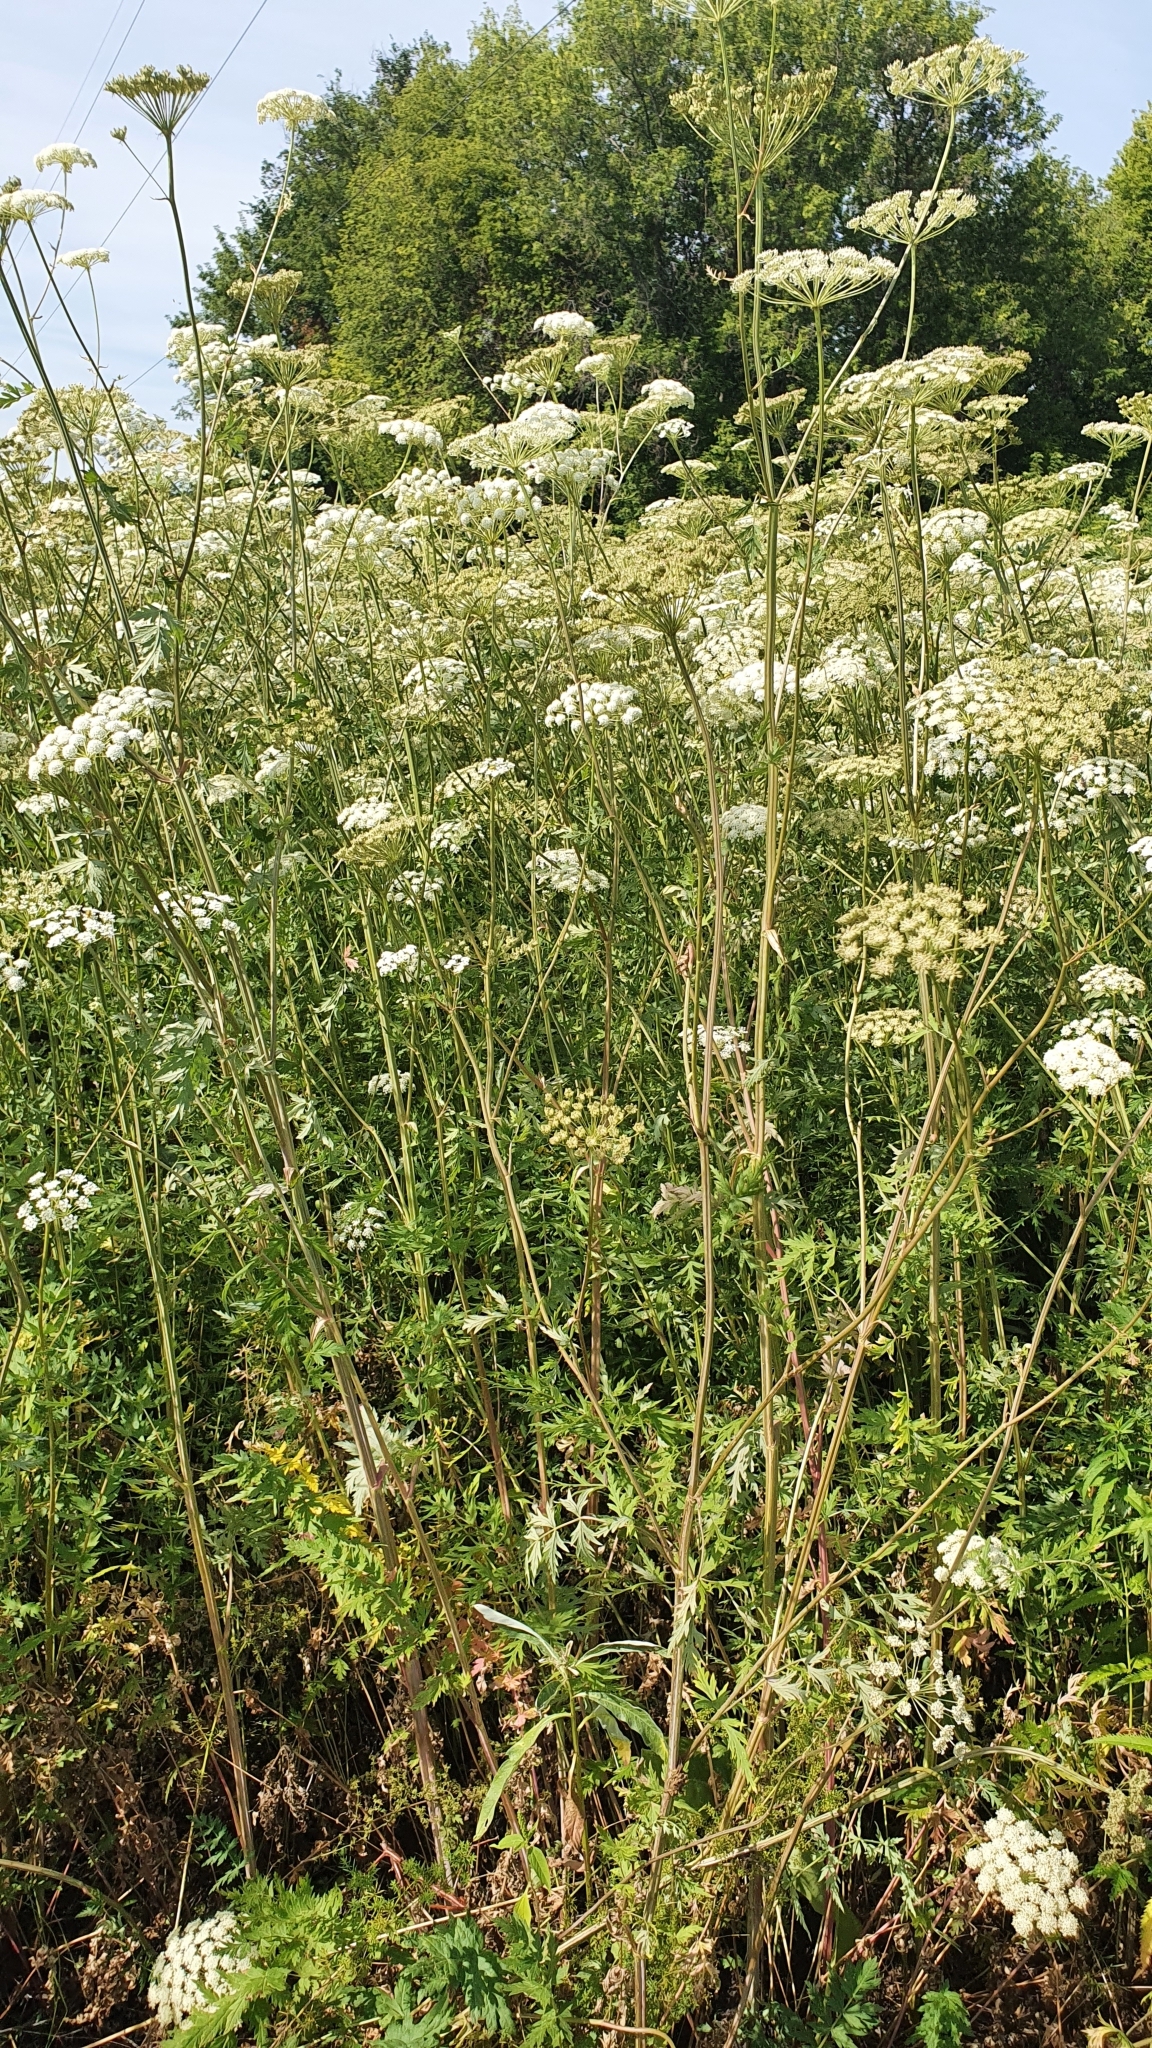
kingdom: Plantae
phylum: Tracheophyta
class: Magnoliopsida
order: Apiales
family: Apiaceae
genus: Seseli
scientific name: Seseli libanotis
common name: Mooncarrot
